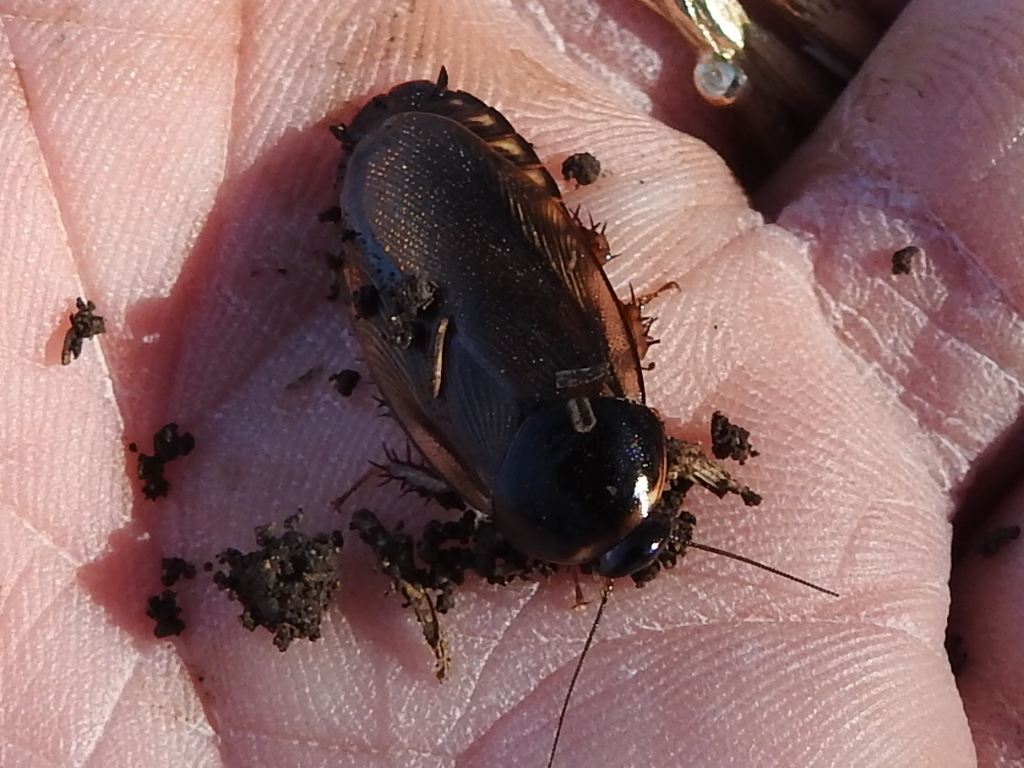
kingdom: Animalia
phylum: Arthropoda
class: Insecta
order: Blattodea
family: Blaberidae
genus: Pycnoscelus
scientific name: Pycnoscelus surinamensis
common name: Surinam cockroach
